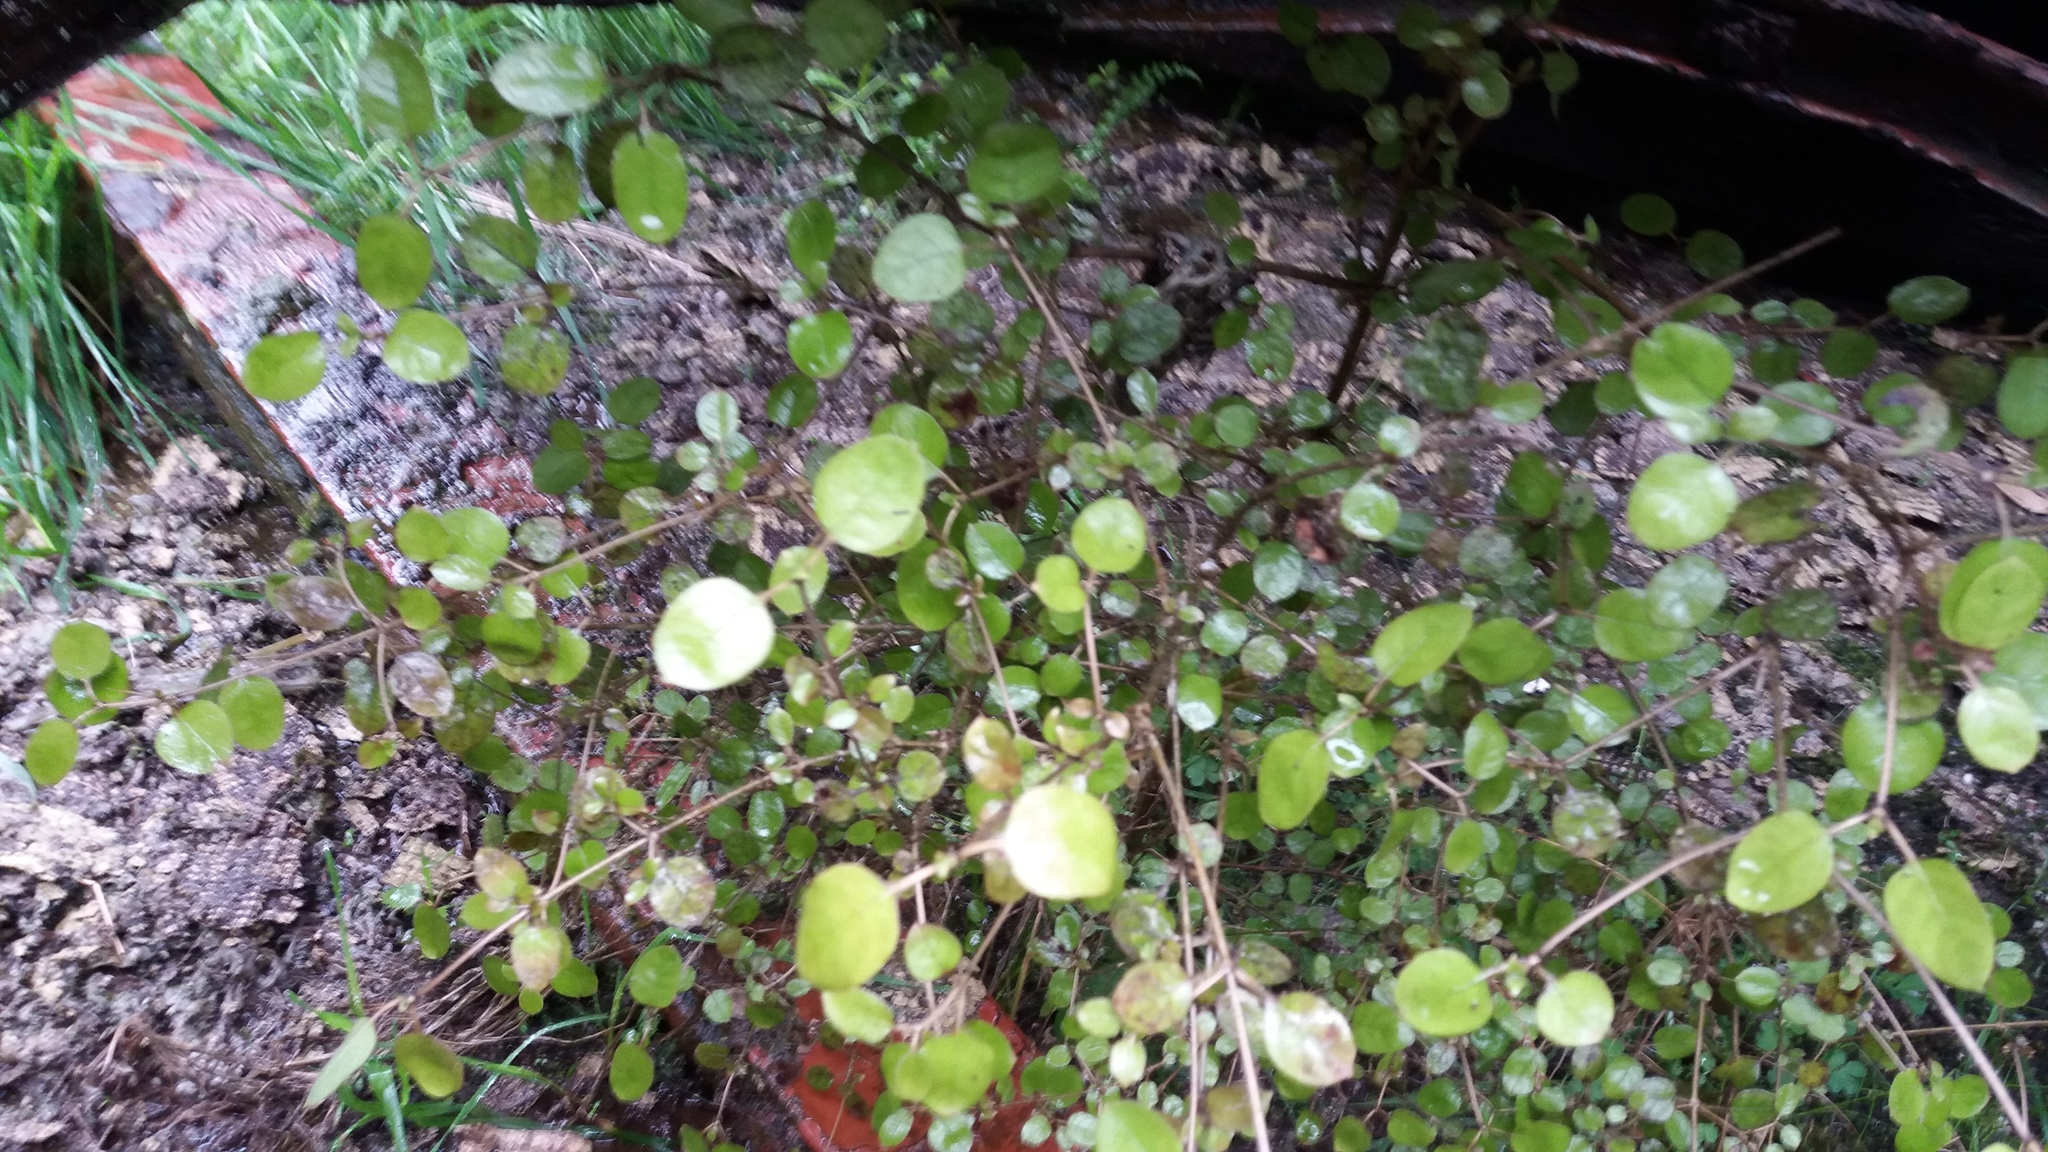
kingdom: Plantae
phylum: Tracheophyta
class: Magnoliopsida
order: Gentianales
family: Rubiaceae
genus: Coprosma
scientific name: Coprosma rotundifolia
